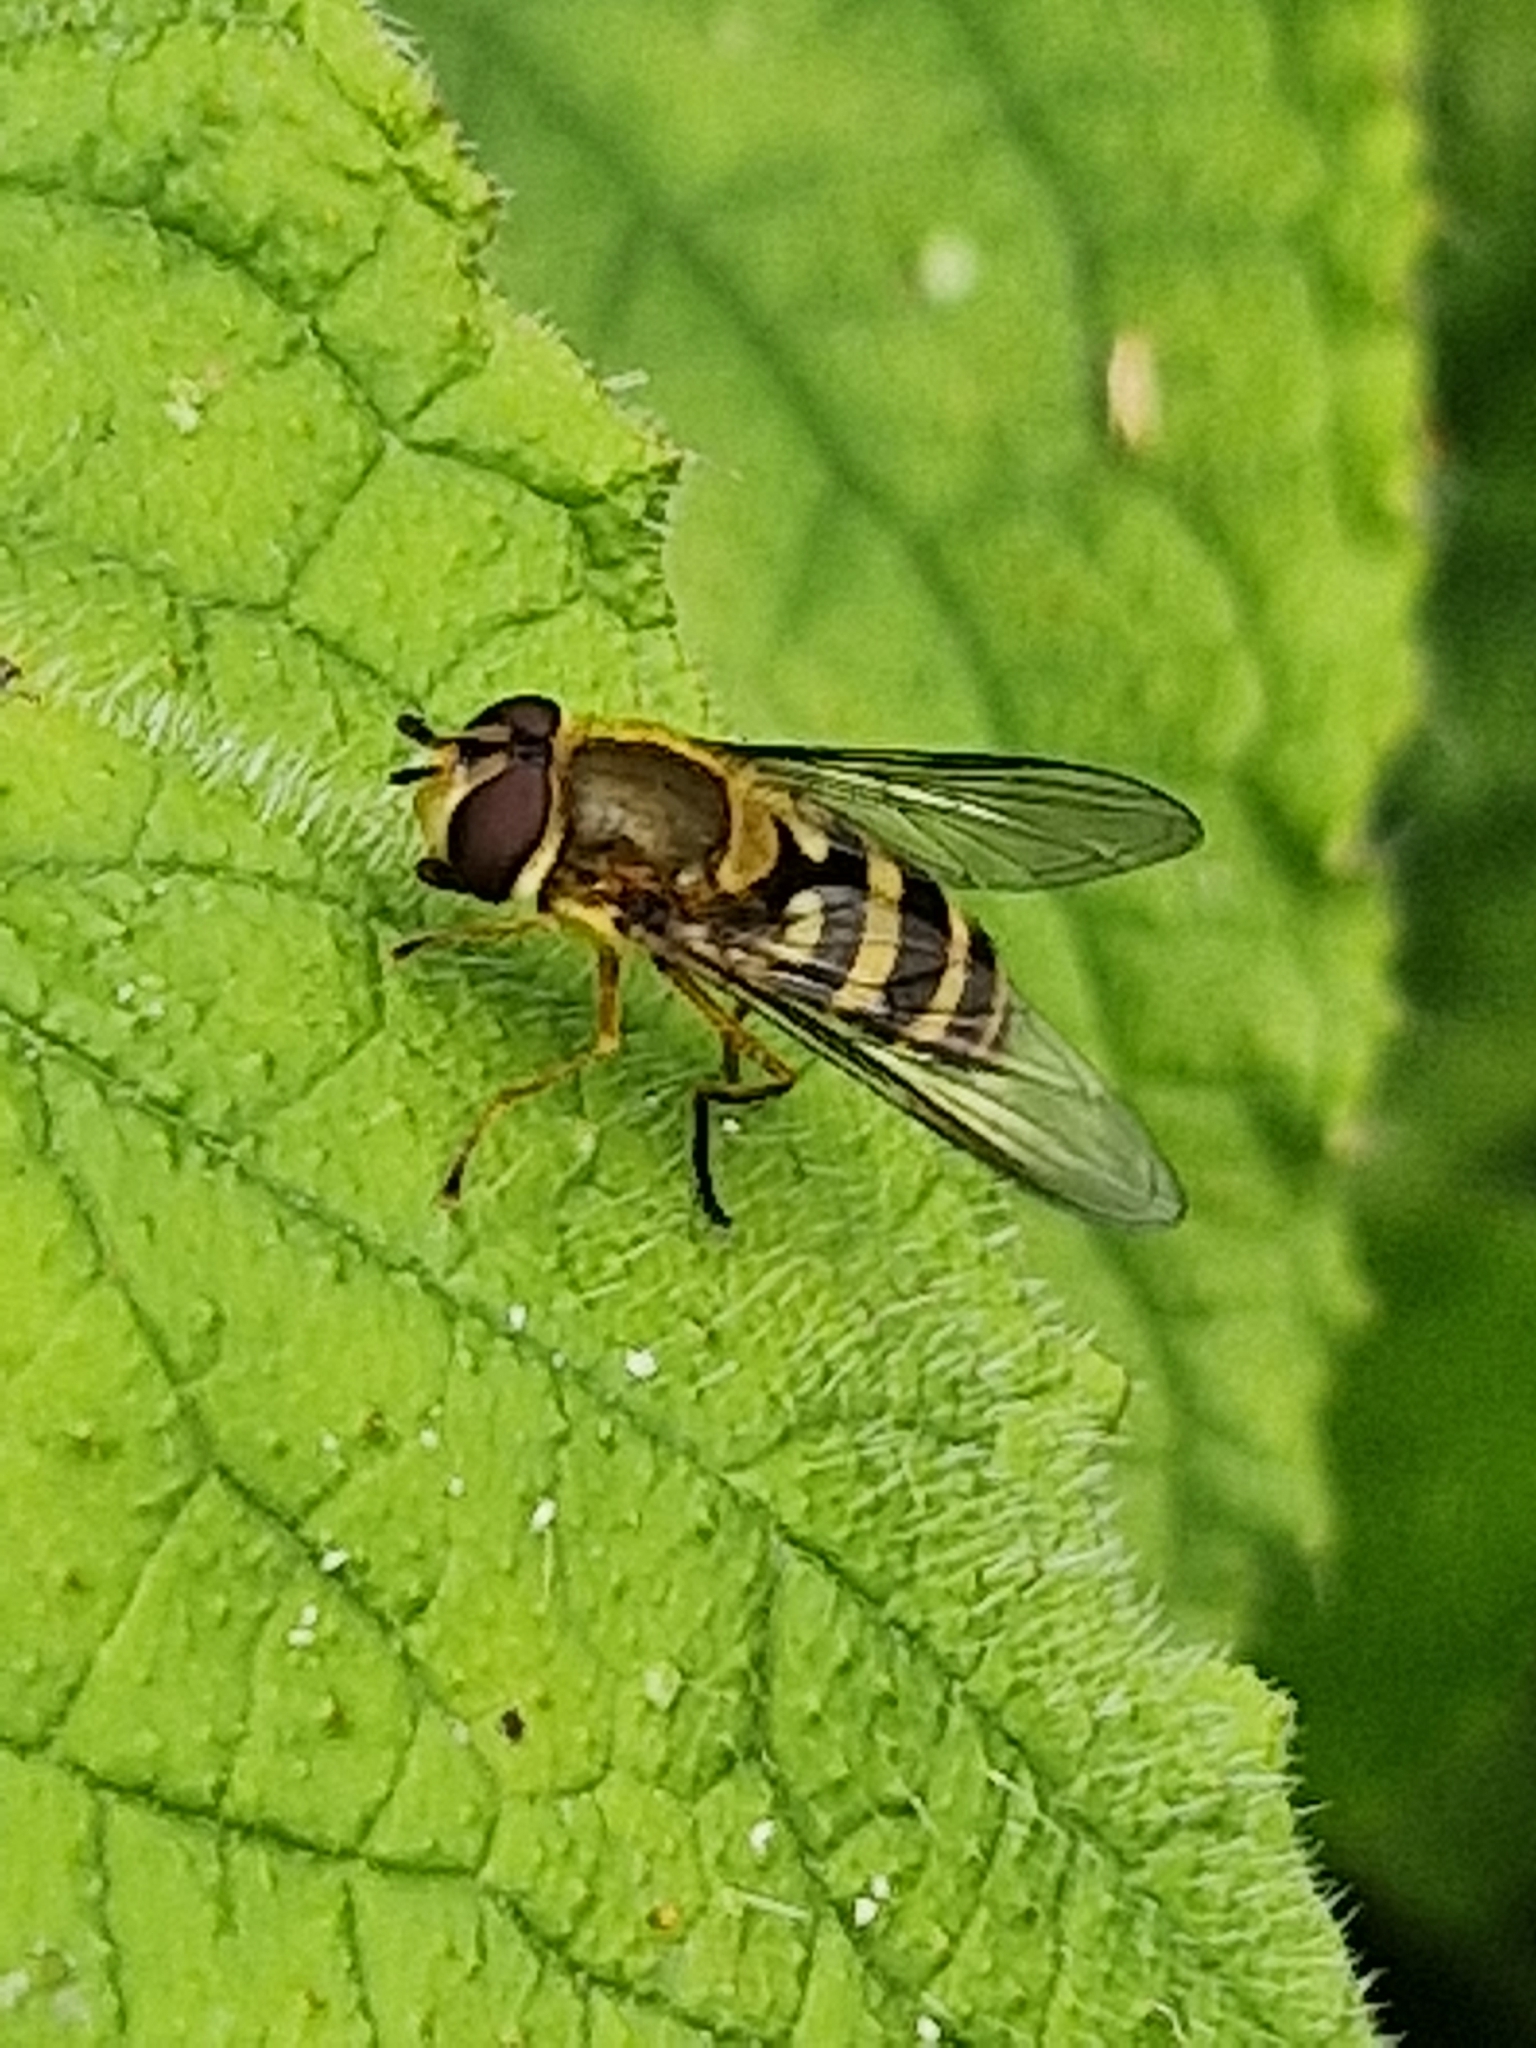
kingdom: Animalia
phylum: Arthropoda
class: Insecta
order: Diptera
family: Syrphidae
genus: Syrphus
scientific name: Syrphus ribesii
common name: Common flower fly
